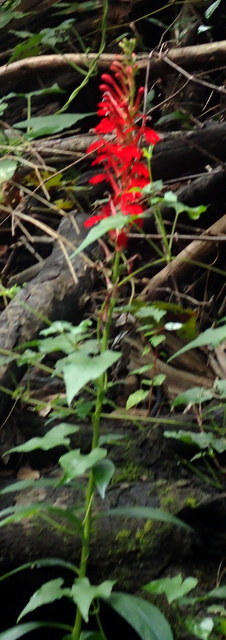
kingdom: Plantae
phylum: Tracheophyta
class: Magnoliopsida
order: Asterales
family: Campanulaceae
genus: Lobelia
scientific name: Lobelia cardinalis
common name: Cardinal flower
